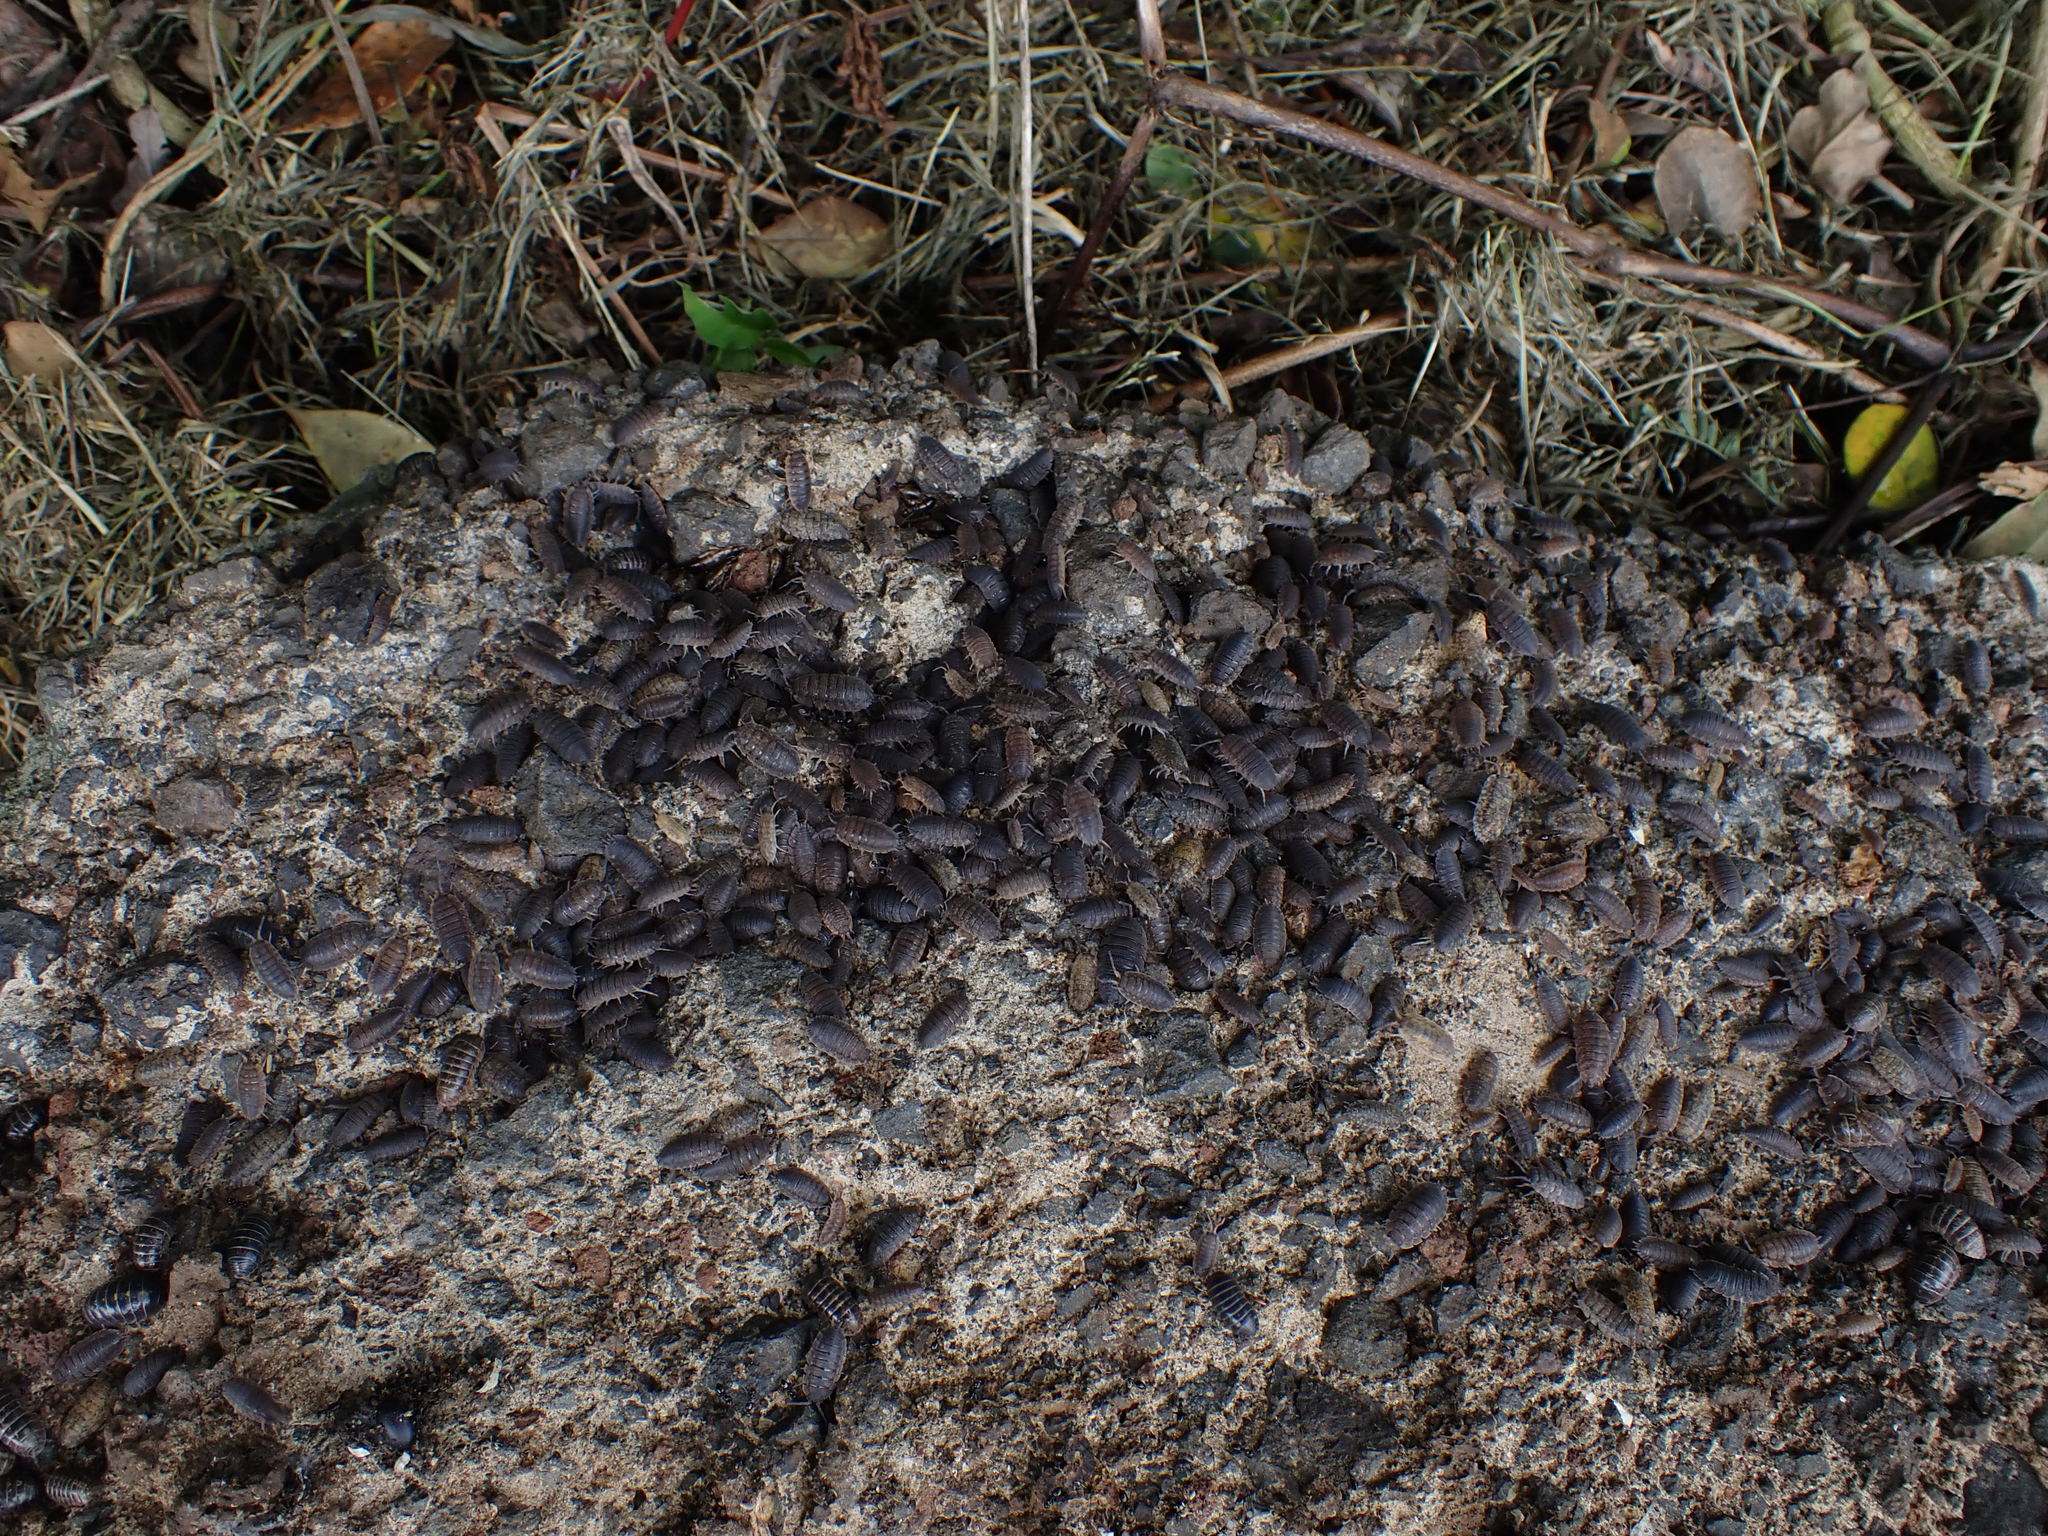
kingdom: Animalia
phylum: Arthropoda
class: Malacostraca
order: Isopoda
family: Porcellionidae
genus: Porcellio
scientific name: Porcellio scaber
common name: Common rough woodlouse
